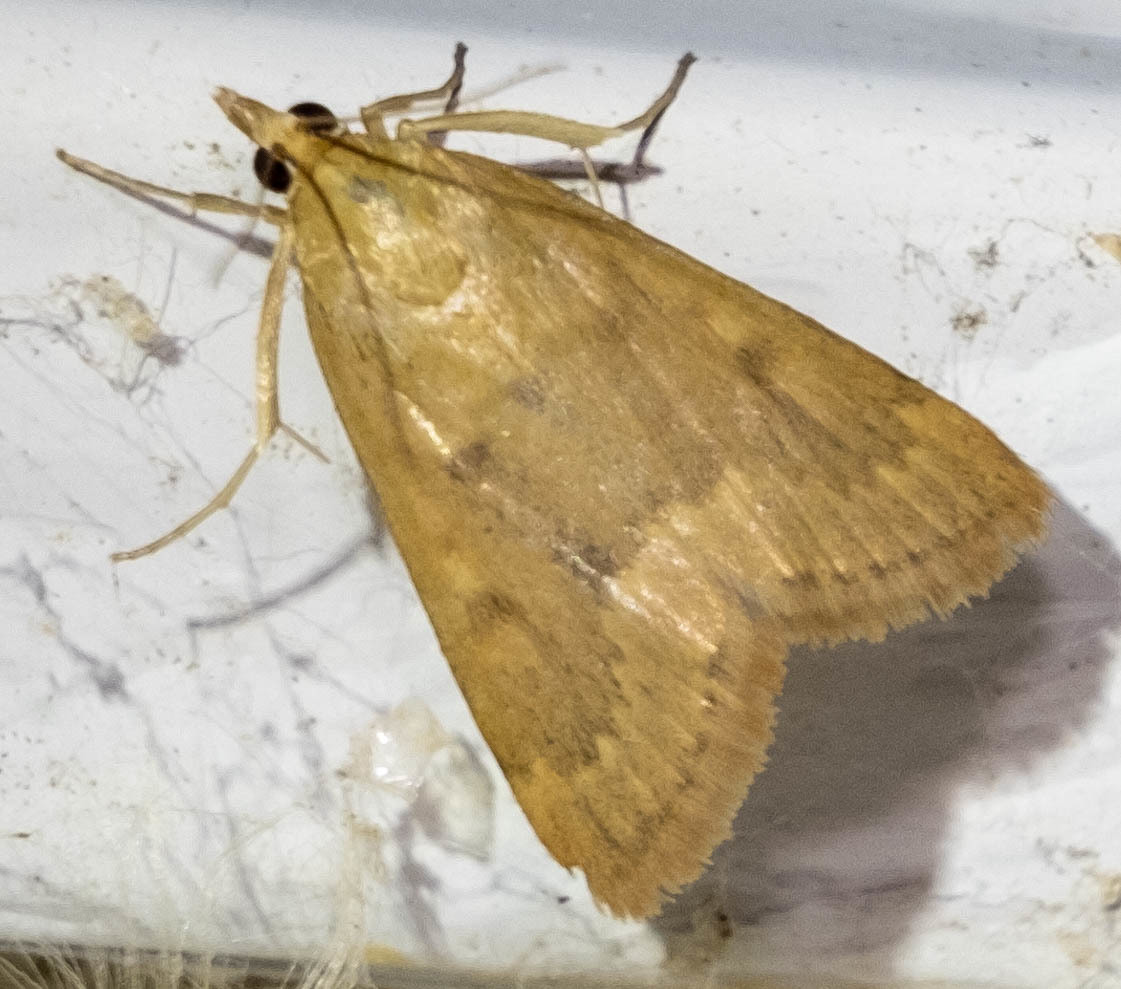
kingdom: Animalia
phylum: Arthropoda
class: Insecta
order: Lepidoptera
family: Crambidae
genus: Achyra
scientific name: Achyra rantalis
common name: Garden webworm
